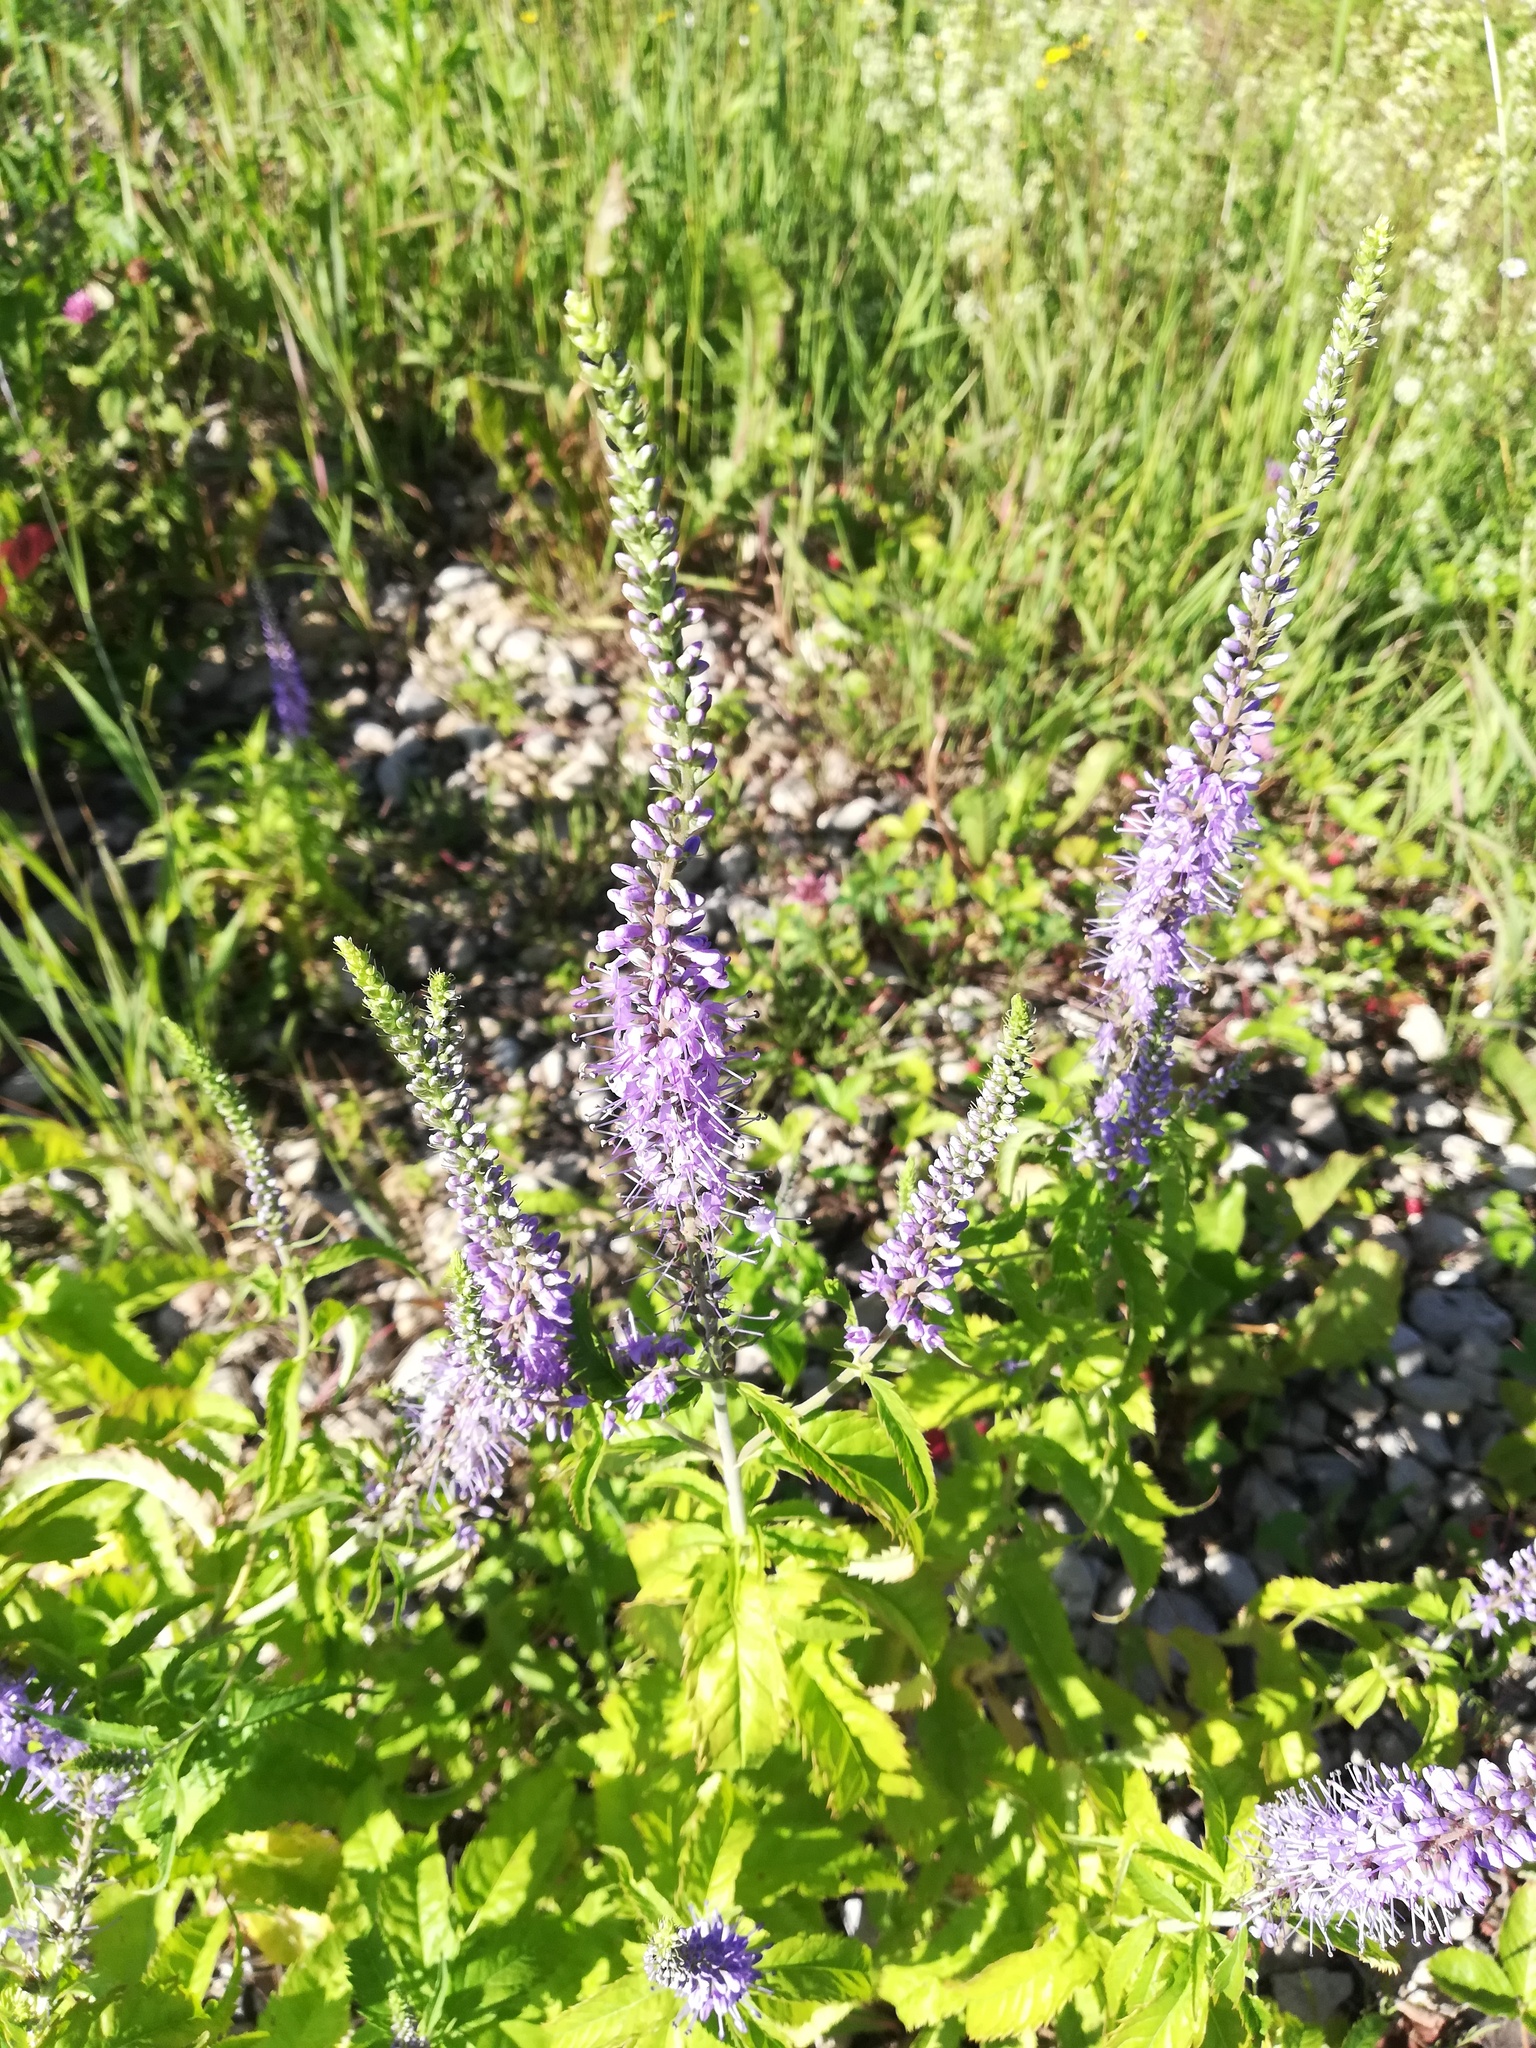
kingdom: Plantae
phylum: Tracheophyta
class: Magnoliopsida
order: Lamiales
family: Plantaginaceae
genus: Veronica
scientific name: Veronica longifolia
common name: Garden speedwell
